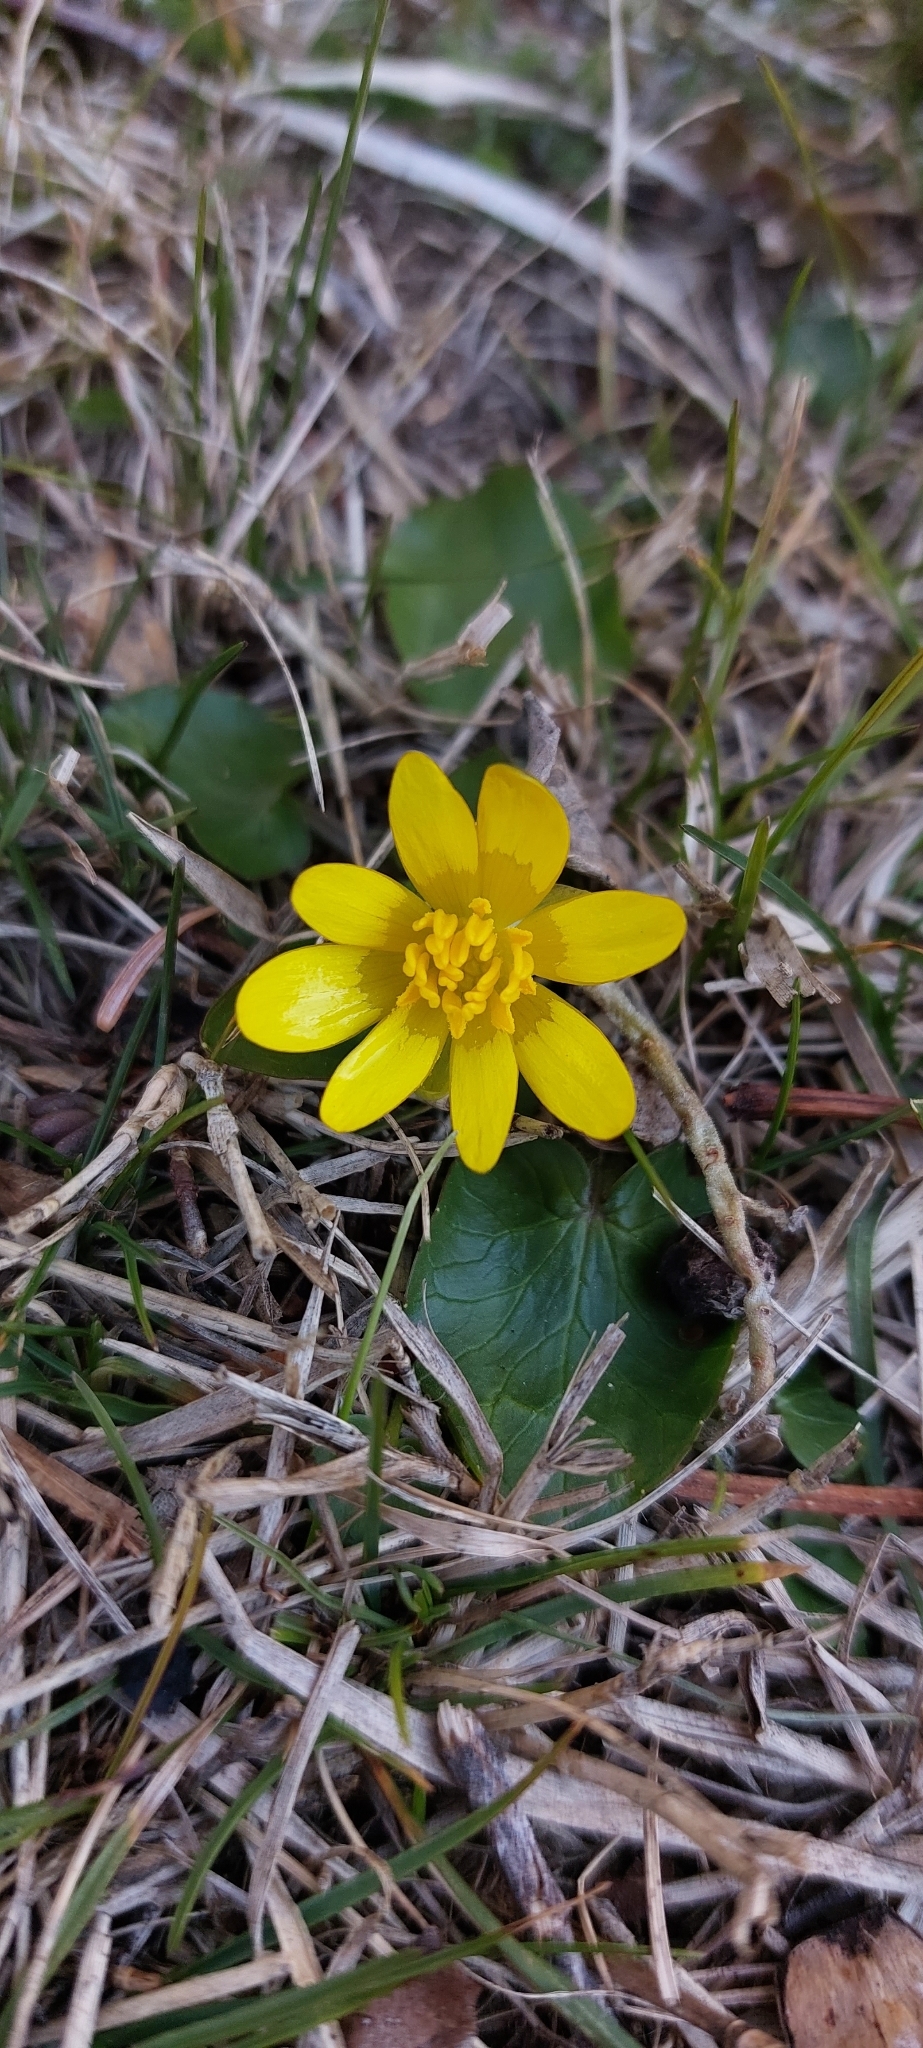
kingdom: Plantae
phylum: Tracheophyta
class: Magnoliopsida
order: Ranunculales
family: Ranunculaceae
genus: Ficaria
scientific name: Ficaria verna
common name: Lesser celandine
